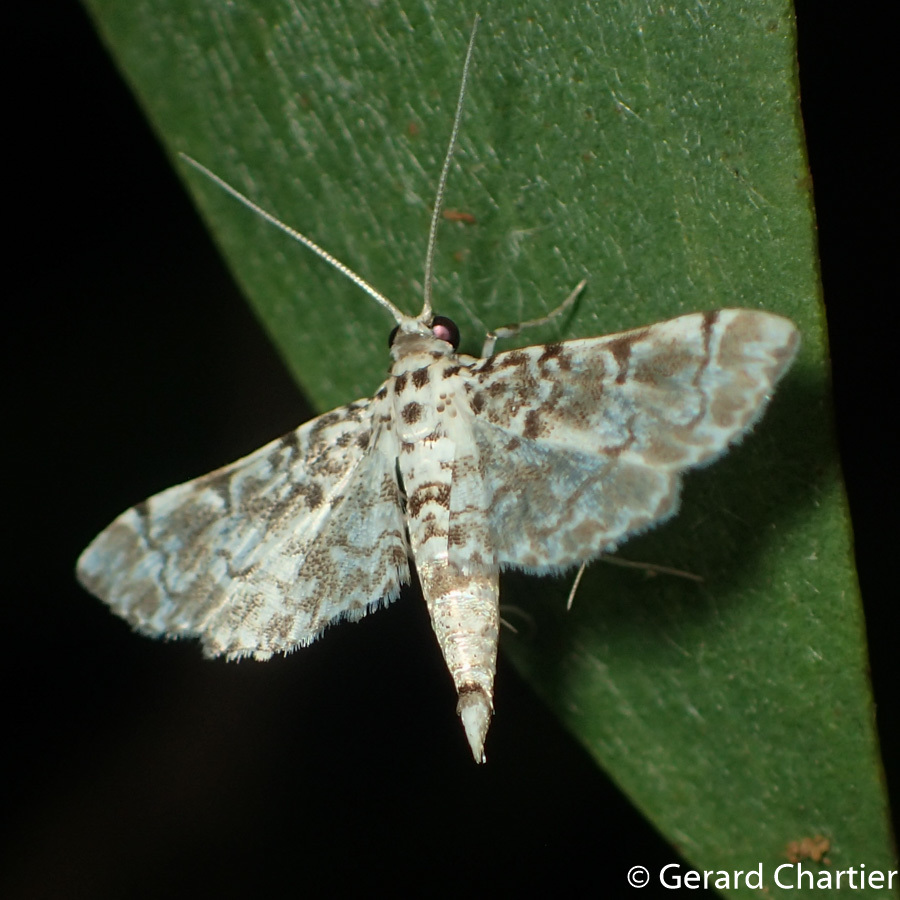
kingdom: Animalia
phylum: Arthropoda
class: Insecta
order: Lepidoptera
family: Crambidae
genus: Metoeca
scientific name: Metoeca foedalis
